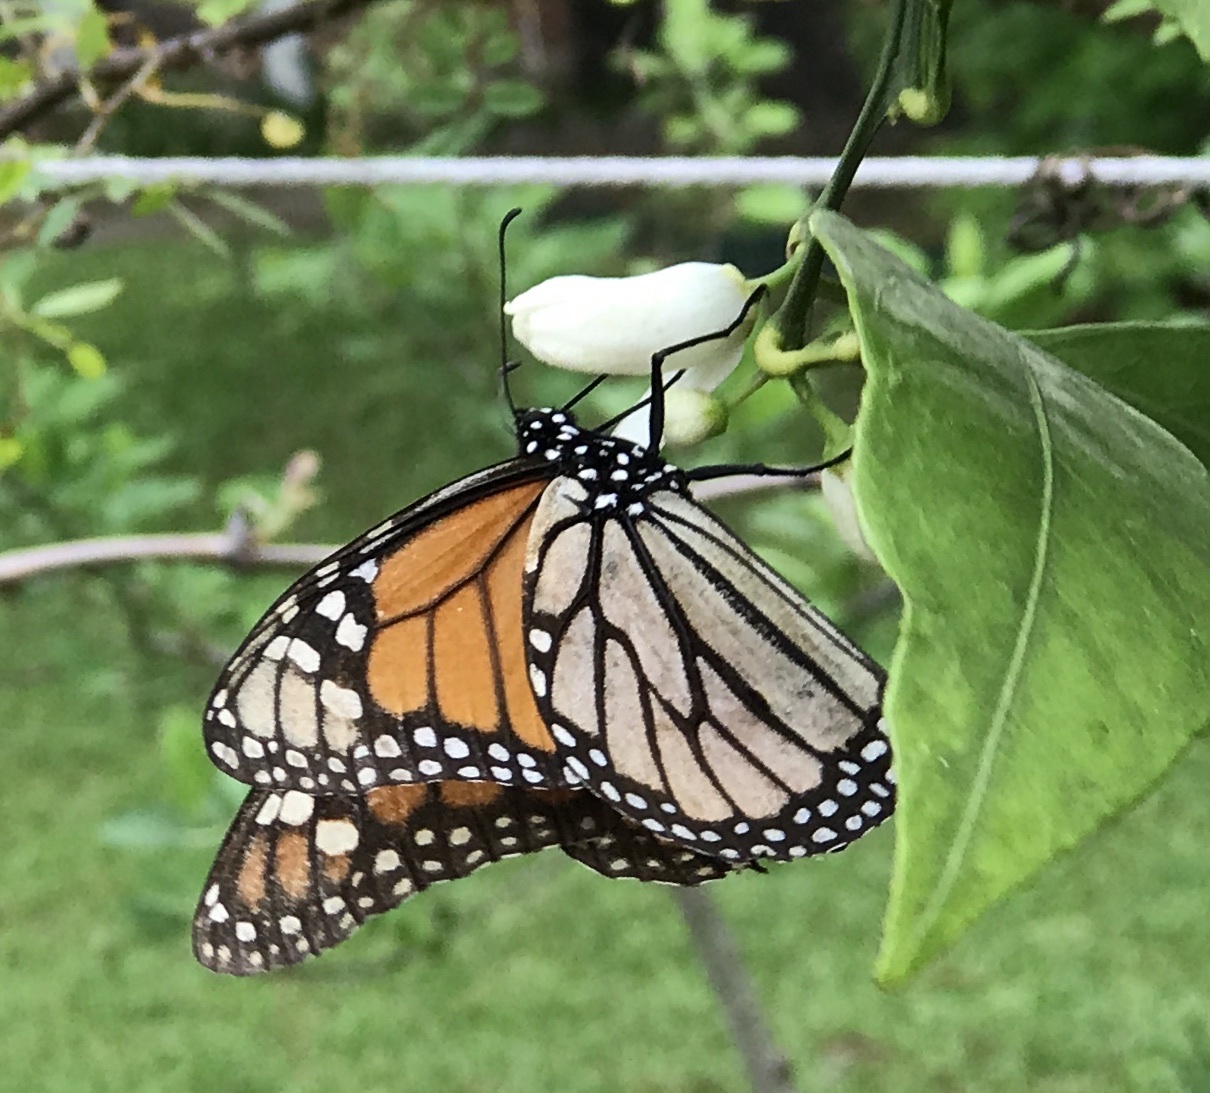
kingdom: Animalia
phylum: Arthropoda
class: Insecta
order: Lepidoptera
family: Nymphalidae
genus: Danaus
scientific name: Danaus plexippus
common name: Monarch
